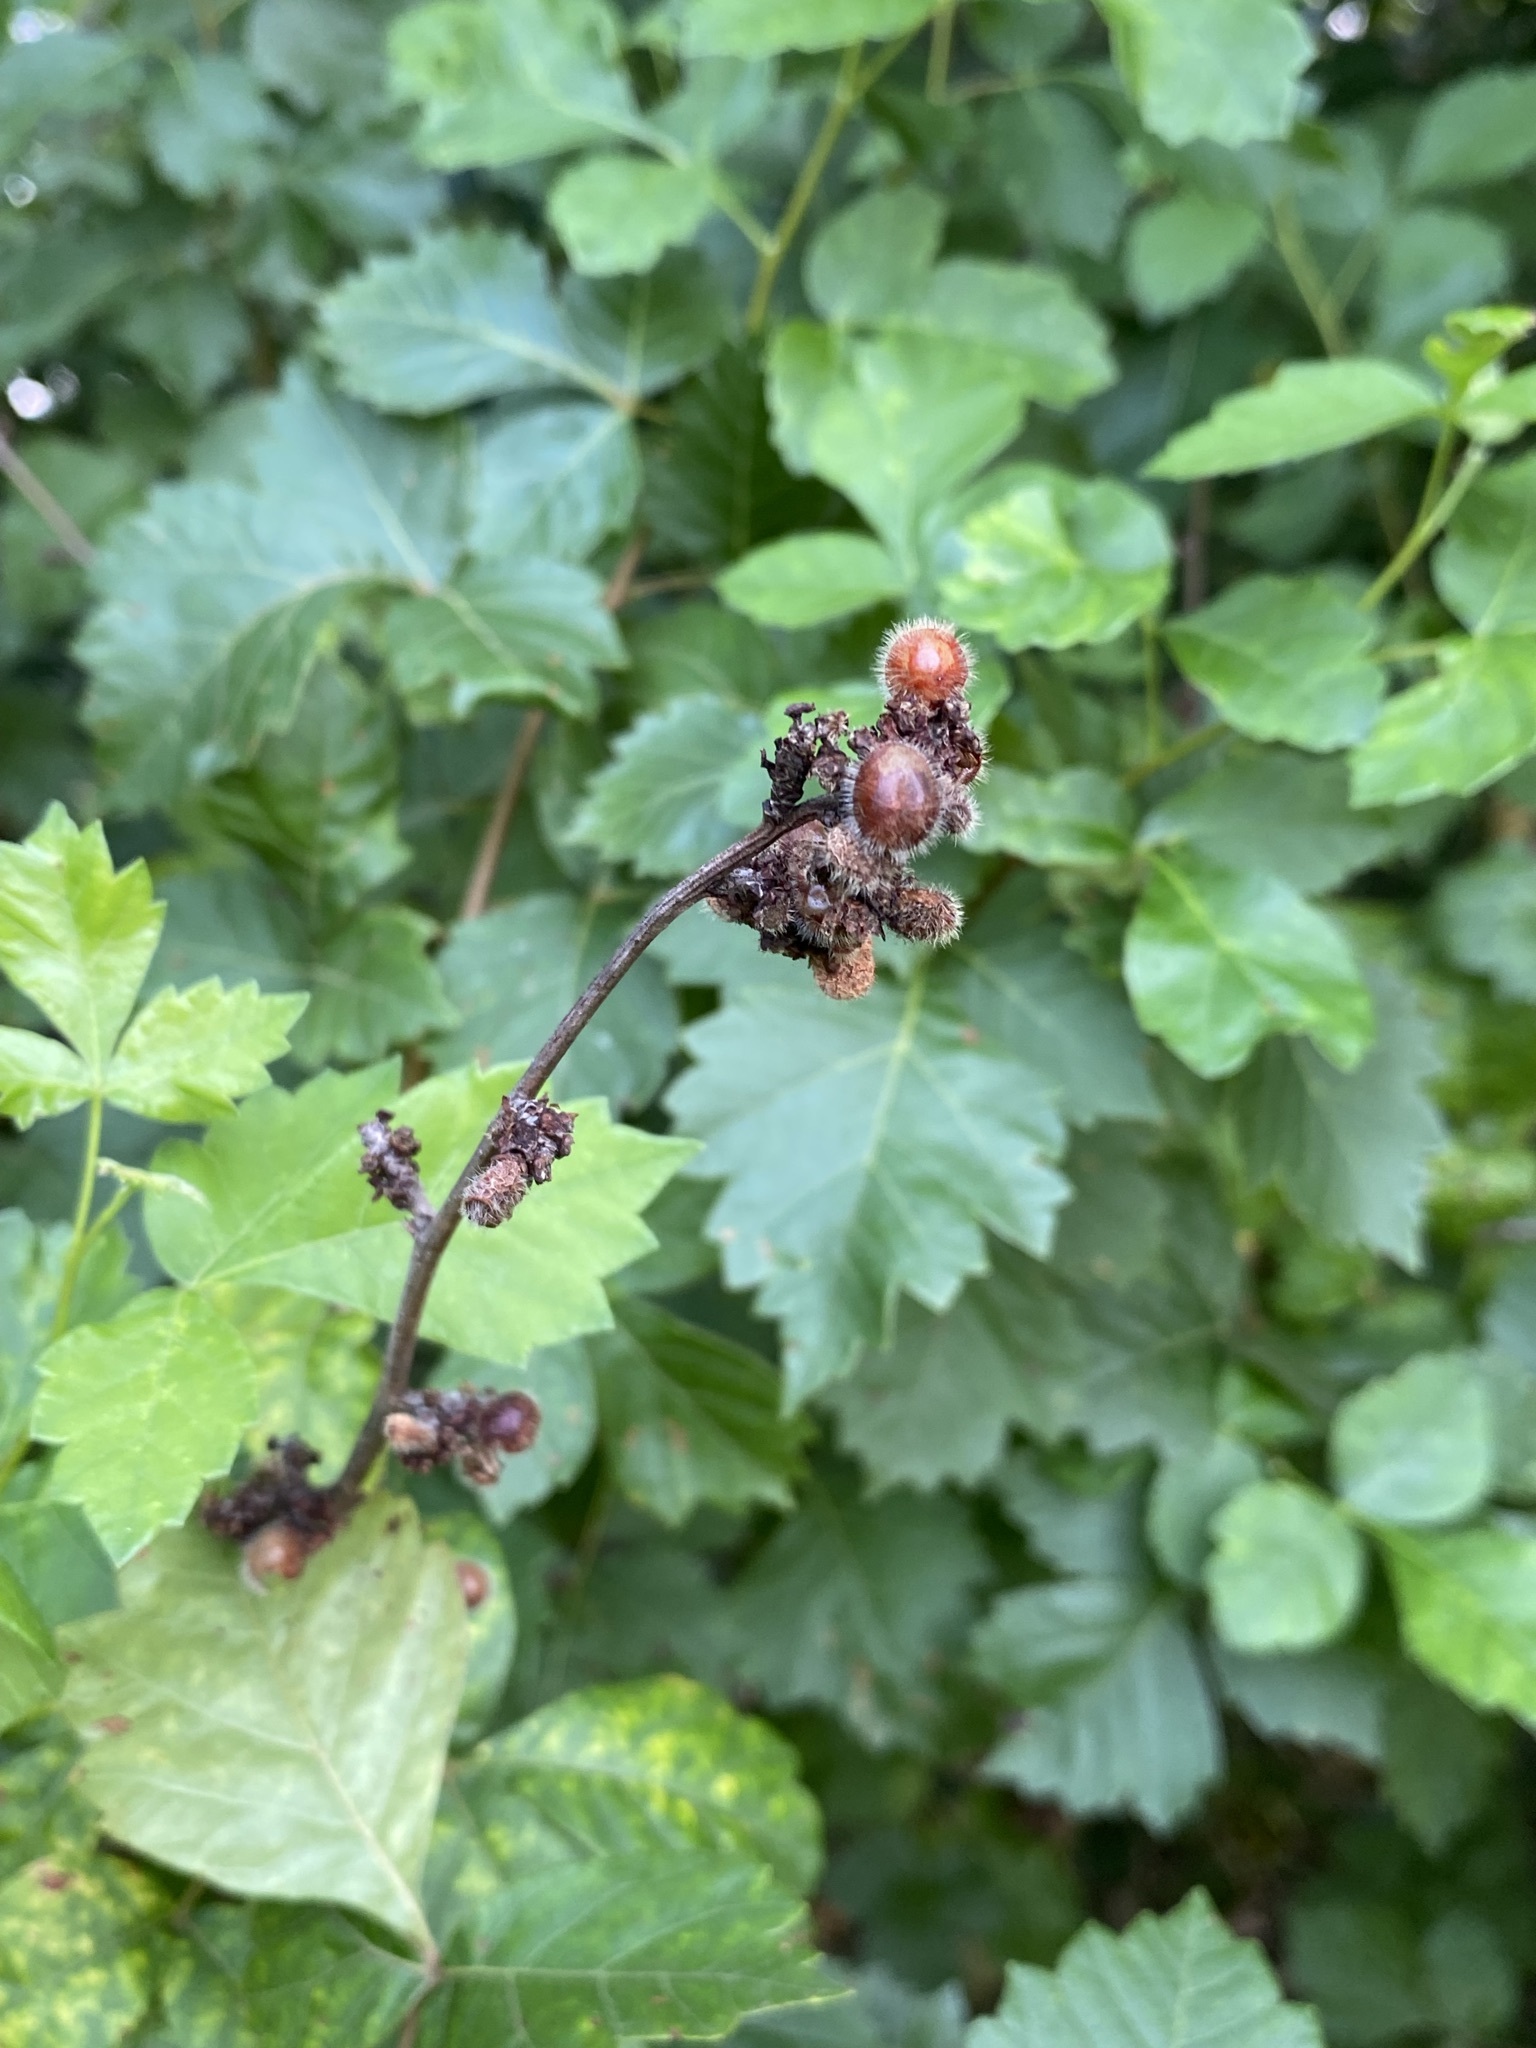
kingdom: Plantae
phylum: Tracheophyta
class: Magnoliopsida
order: Sapindales
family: Anacardiaceae
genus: Rhus
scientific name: Rhus aromatica
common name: Aromatic sumac
